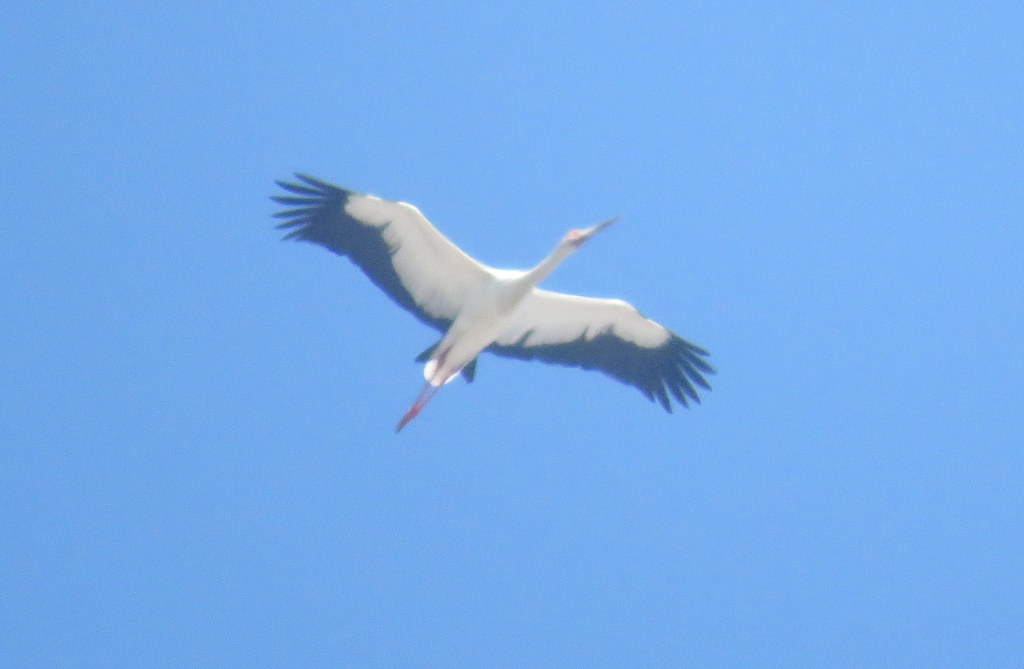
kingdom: Animalia
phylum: Chordata
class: Aves
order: Ciconiiformes
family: Ciconiidae
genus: Ciconia
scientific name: Ciconia maguari
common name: Maguari stork
